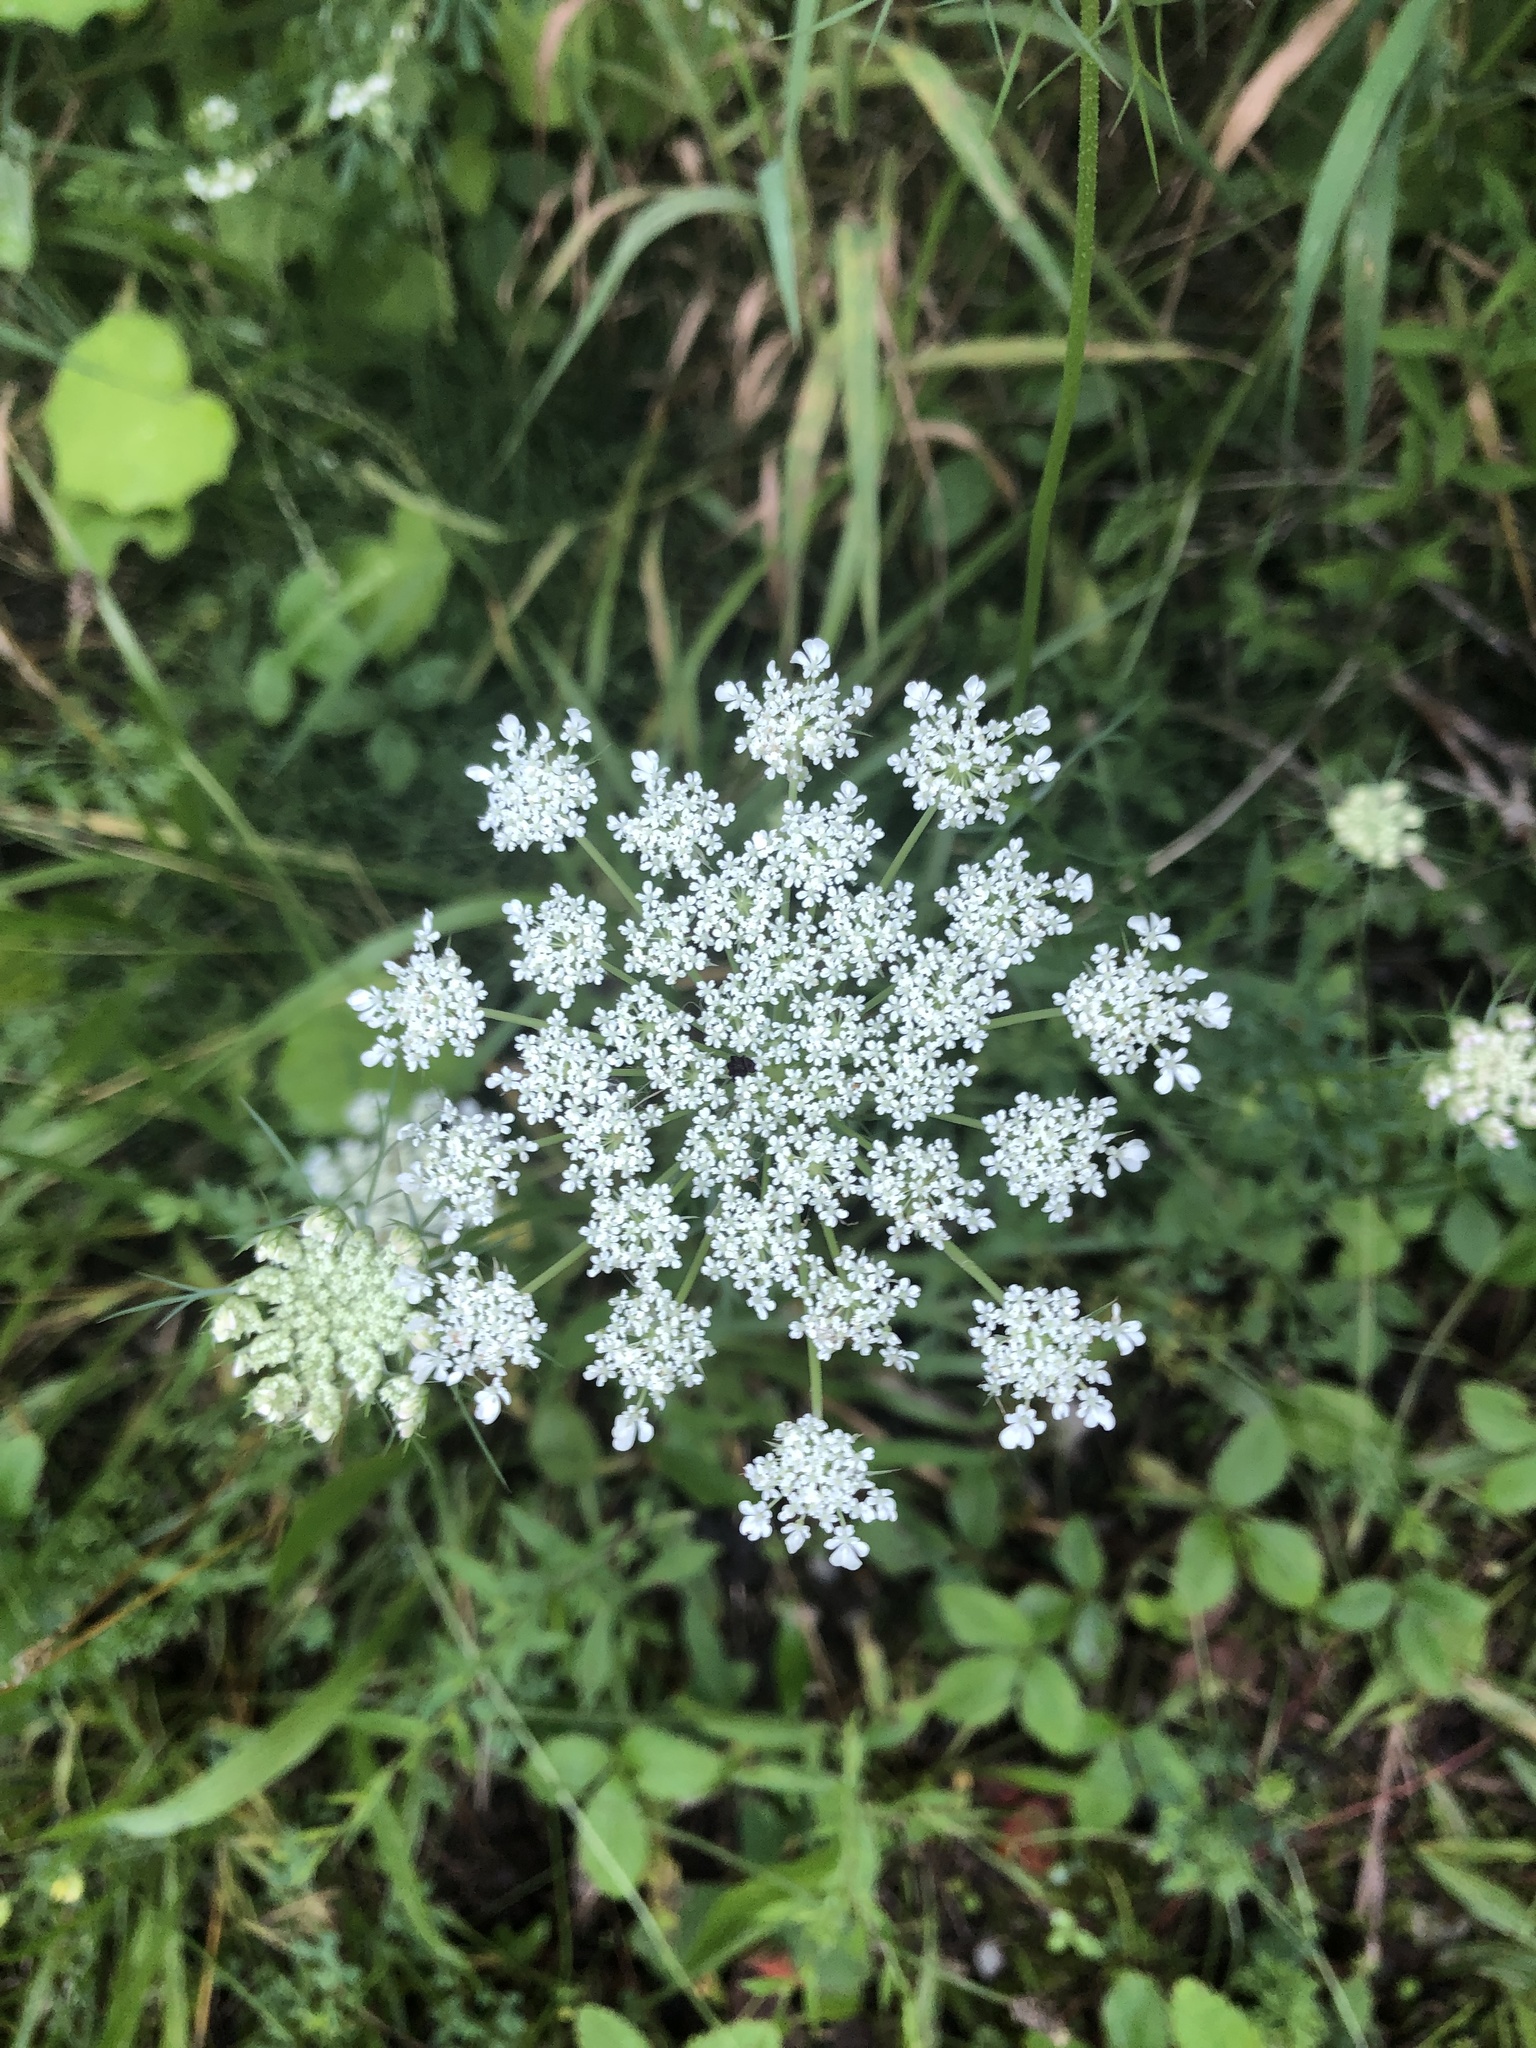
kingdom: Plantae
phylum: Tracheophyta
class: Magnoliopsida
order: Apiales
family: Apiaceae
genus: Daucus
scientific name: Daucus carota
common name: Wild carrot
